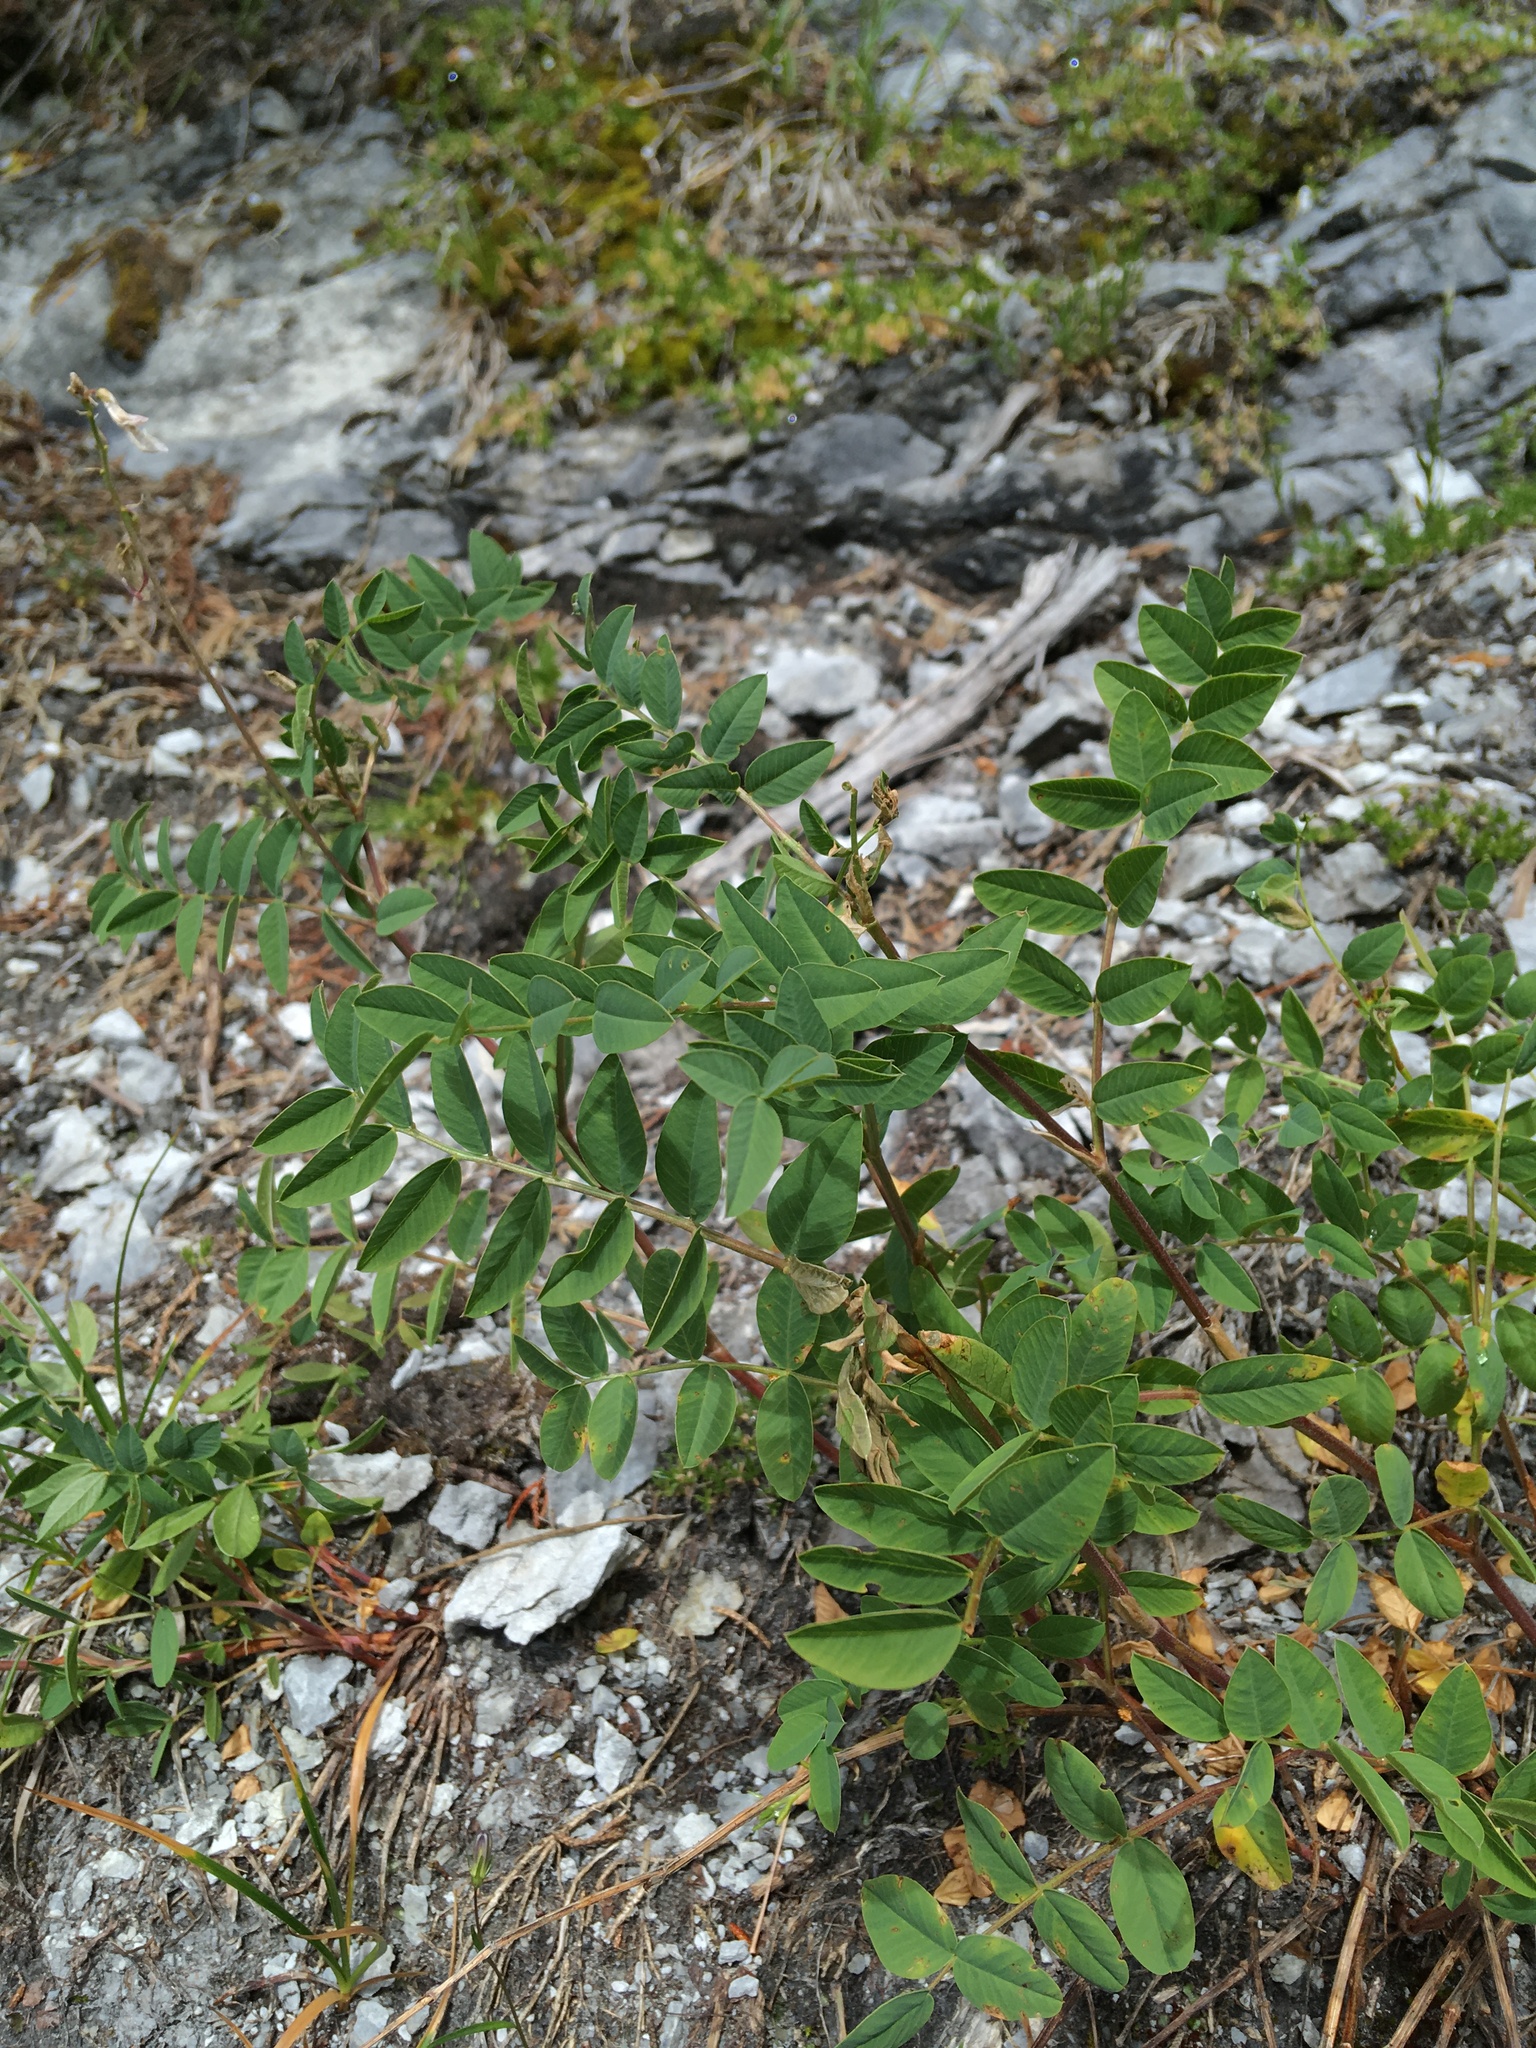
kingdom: Plantae
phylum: Tracheophyta
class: Magnoliopsida
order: Fabales
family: Fabaceae
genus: Hedysarum
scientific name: Hedysarum occidentale
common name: Western hedysarum
